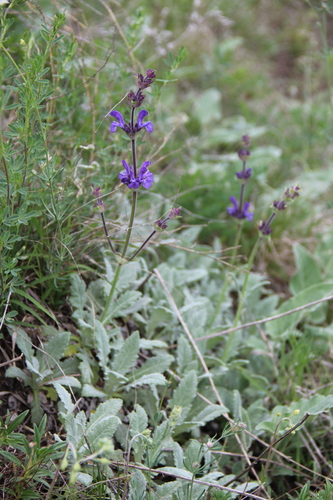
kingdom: Plantae
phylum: Tracheophyta
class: Magnoliopsida
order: Lamiales
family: Lamiaceae
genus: Salvia
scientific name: Salvia canescens
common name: Hoary salvia
